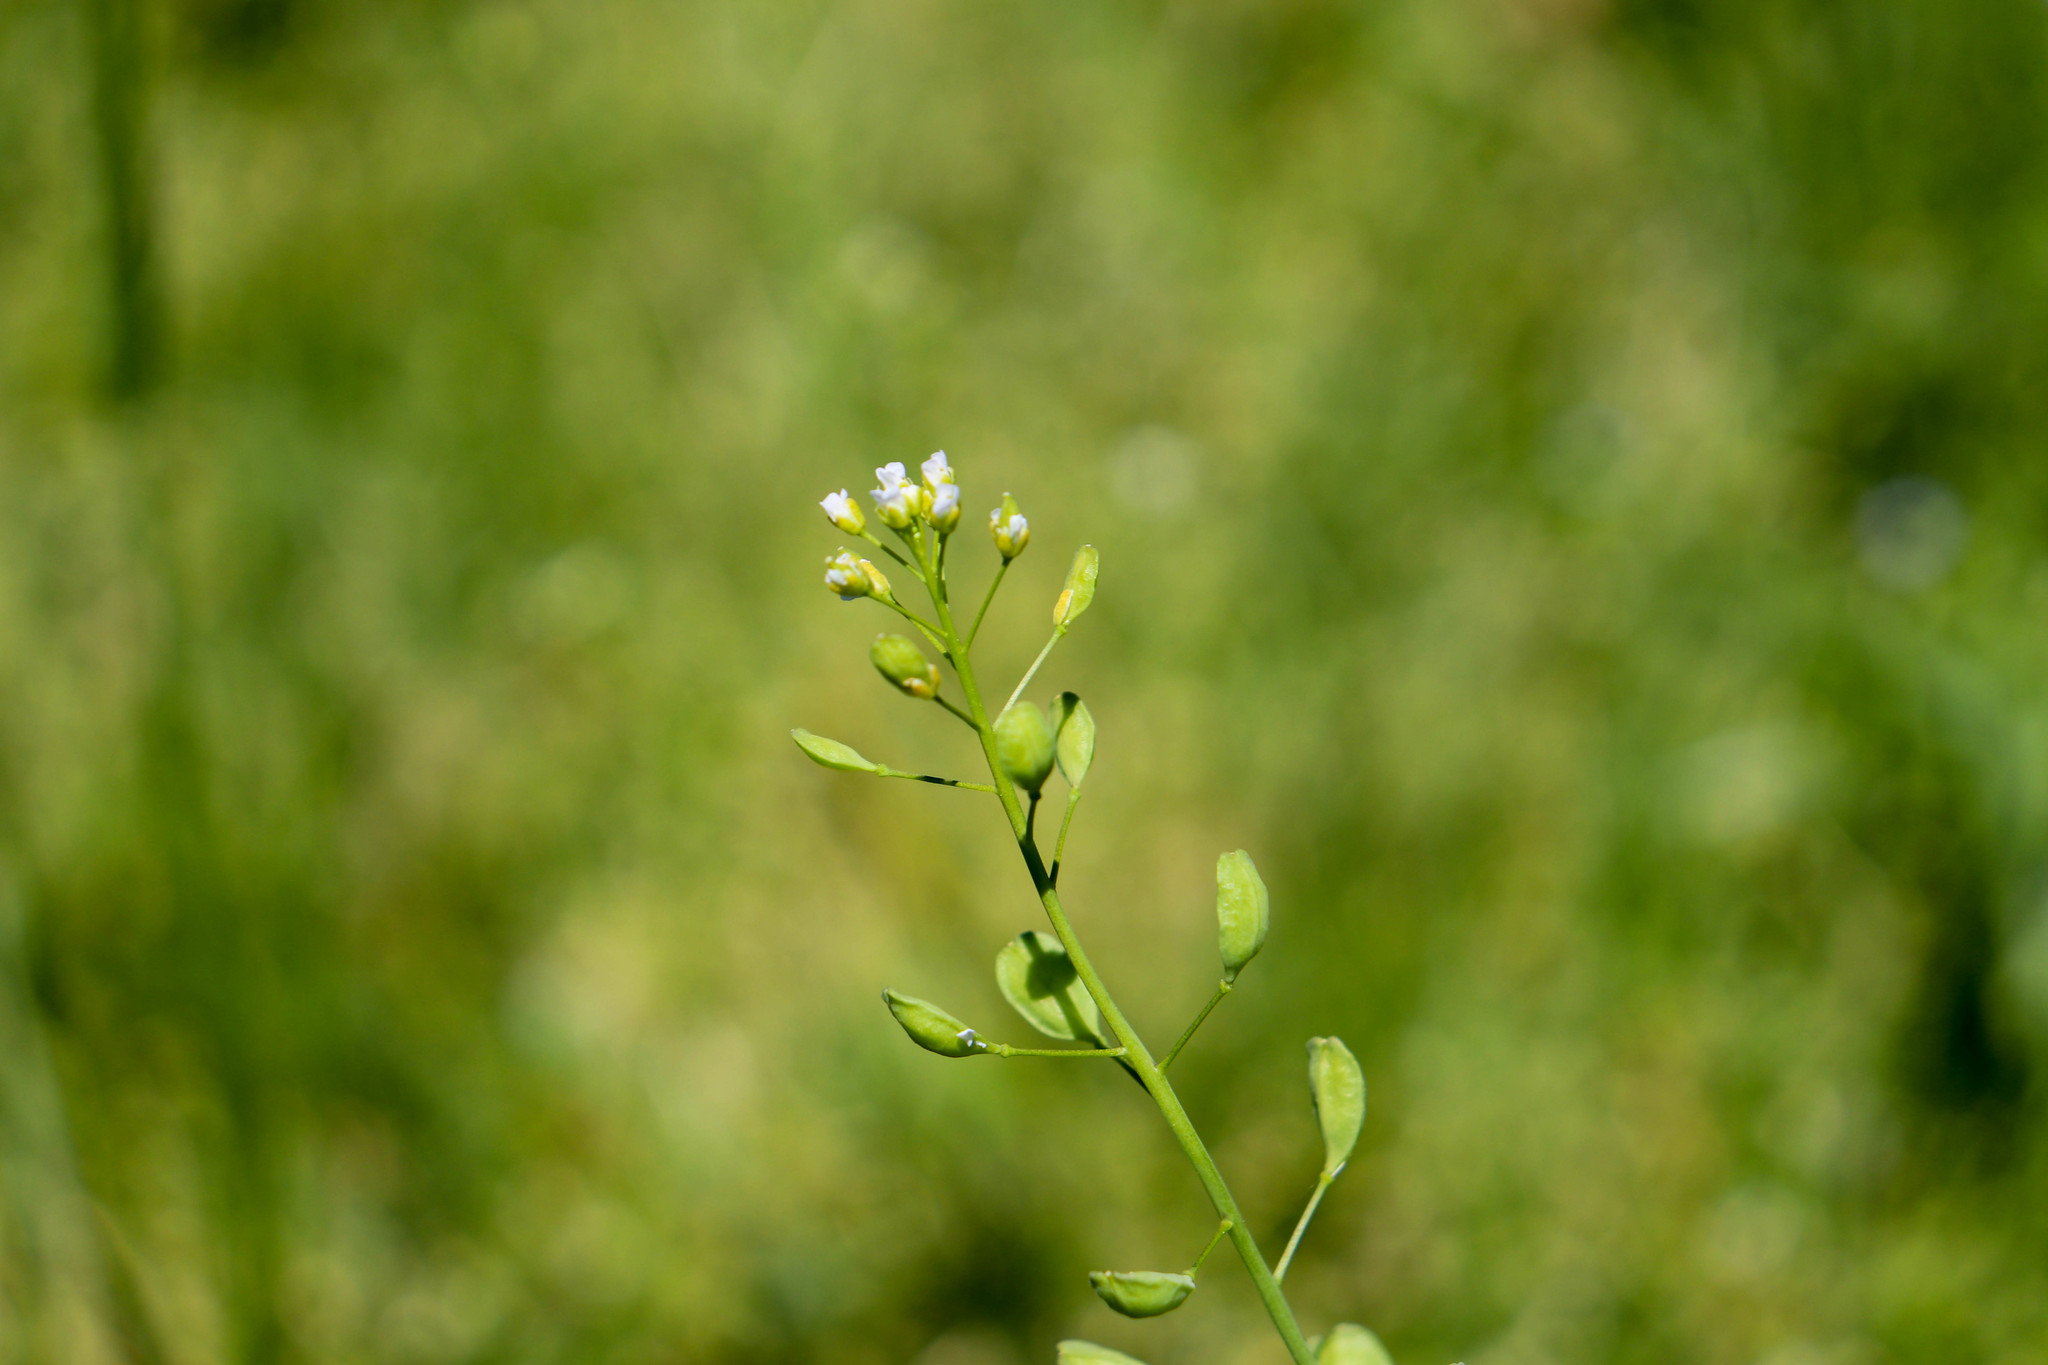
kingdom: Plantae
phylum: Tracheophyta
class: Magnoliopsida
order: Brassicales
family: Brassicaceae
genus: Mummenhoffia
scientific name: Mummenhoffia alliacea
